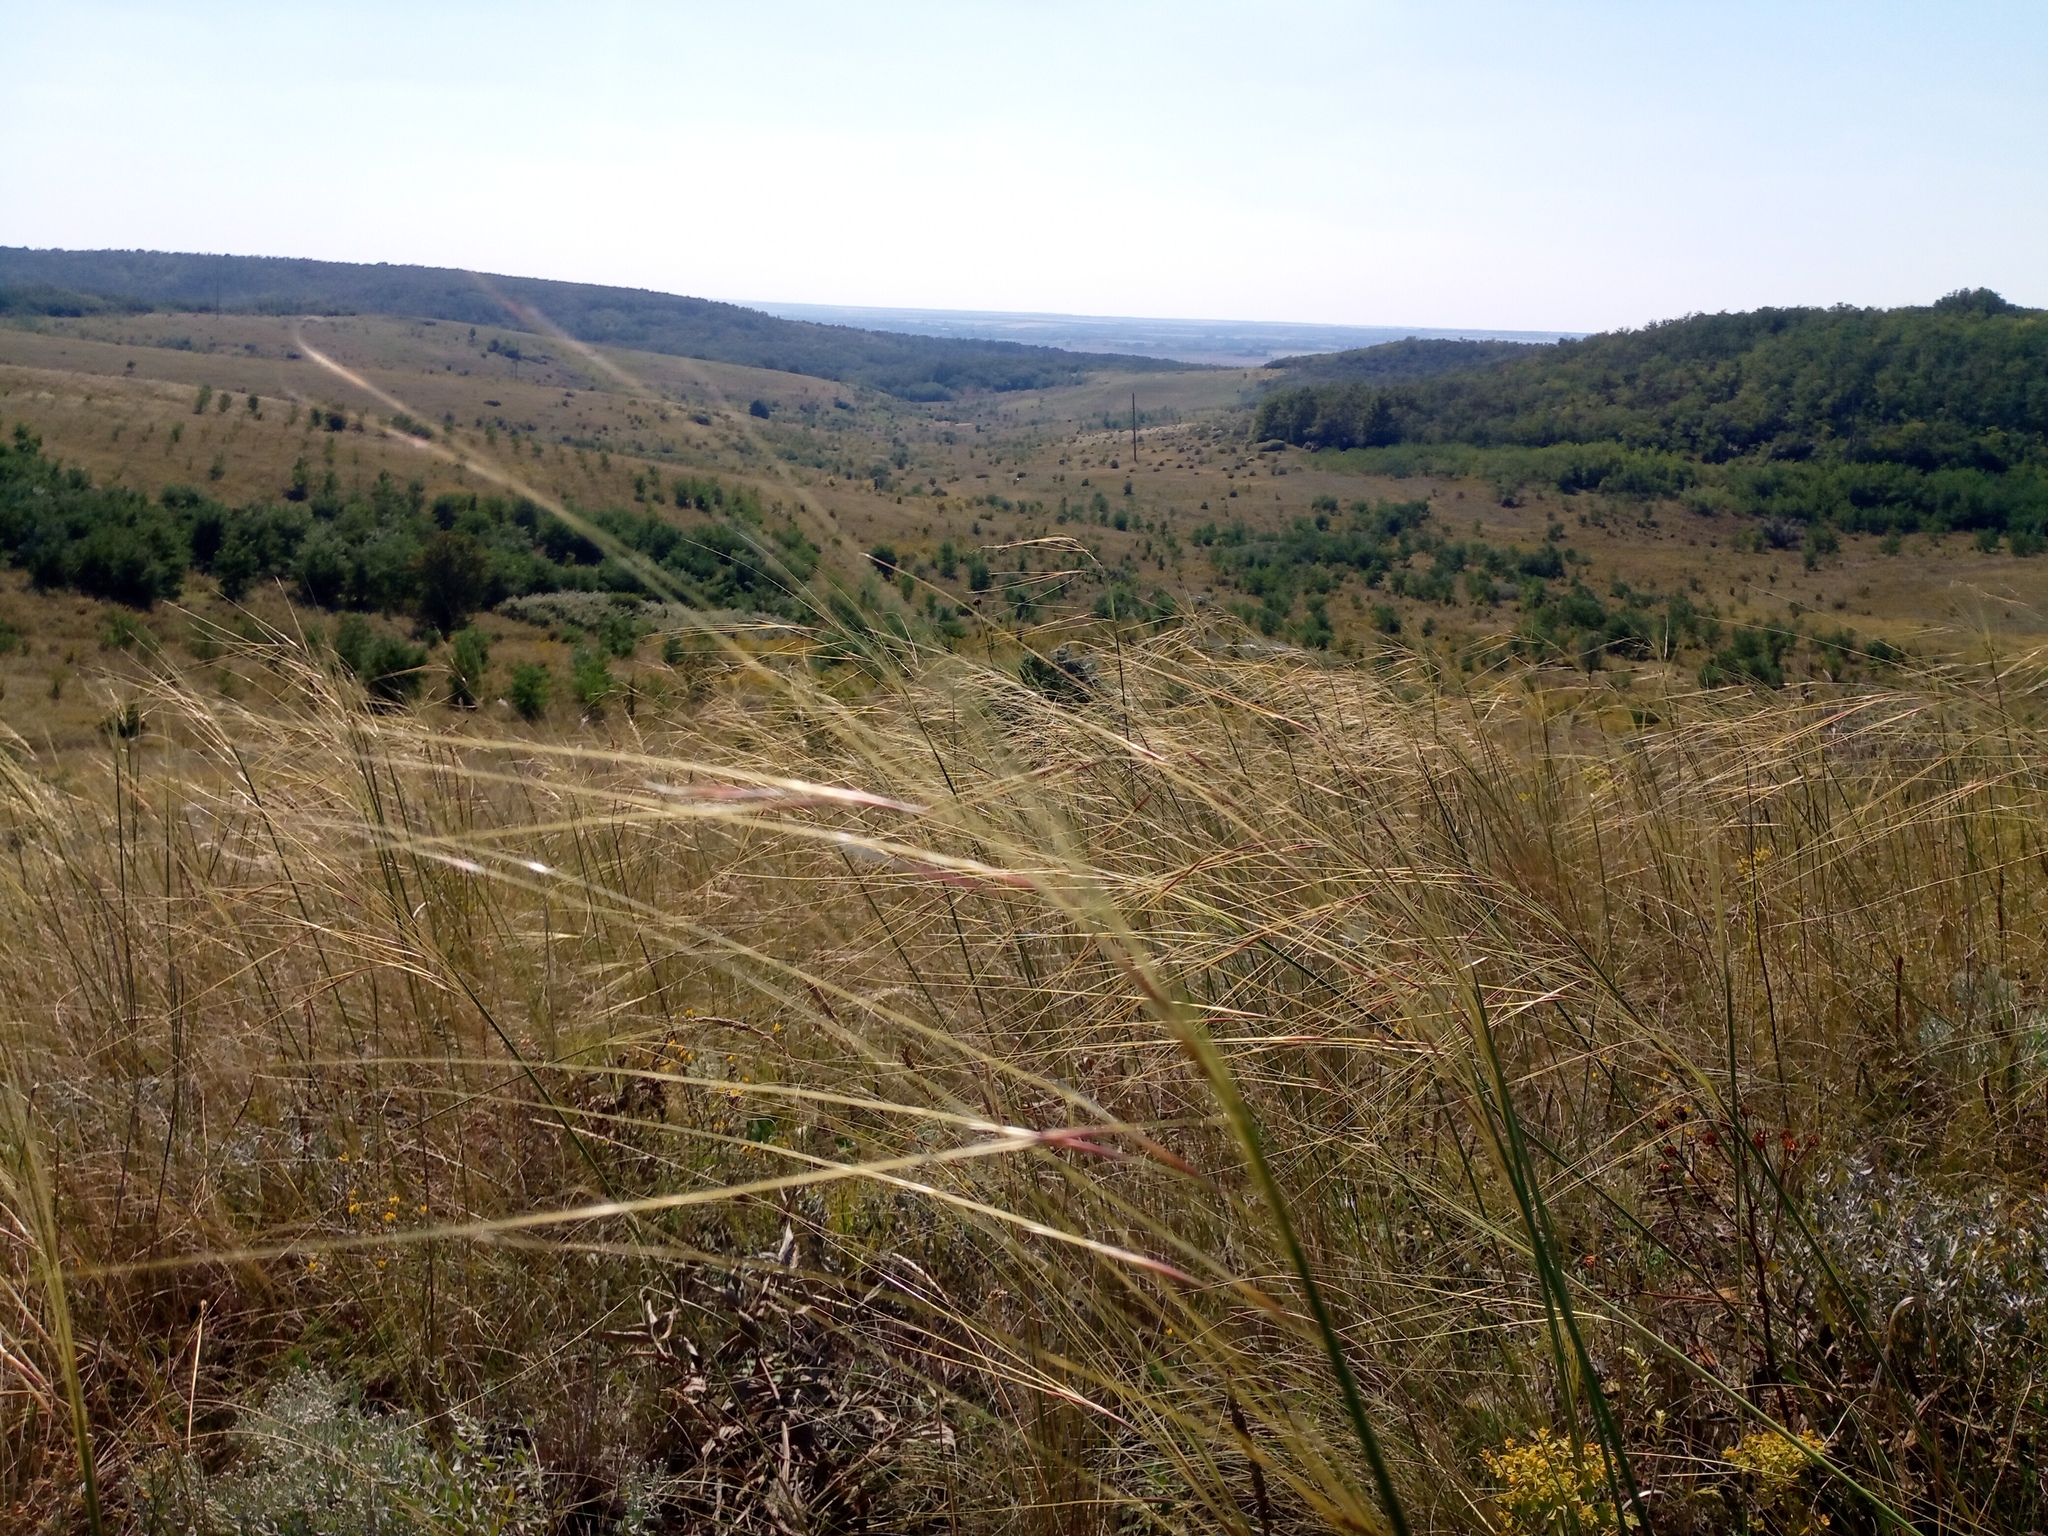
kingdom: Plantae
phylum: Tracheophyta
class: Liliopsida
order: Poales
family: Poaceae
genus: Stipa
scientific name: Stipa capillata
